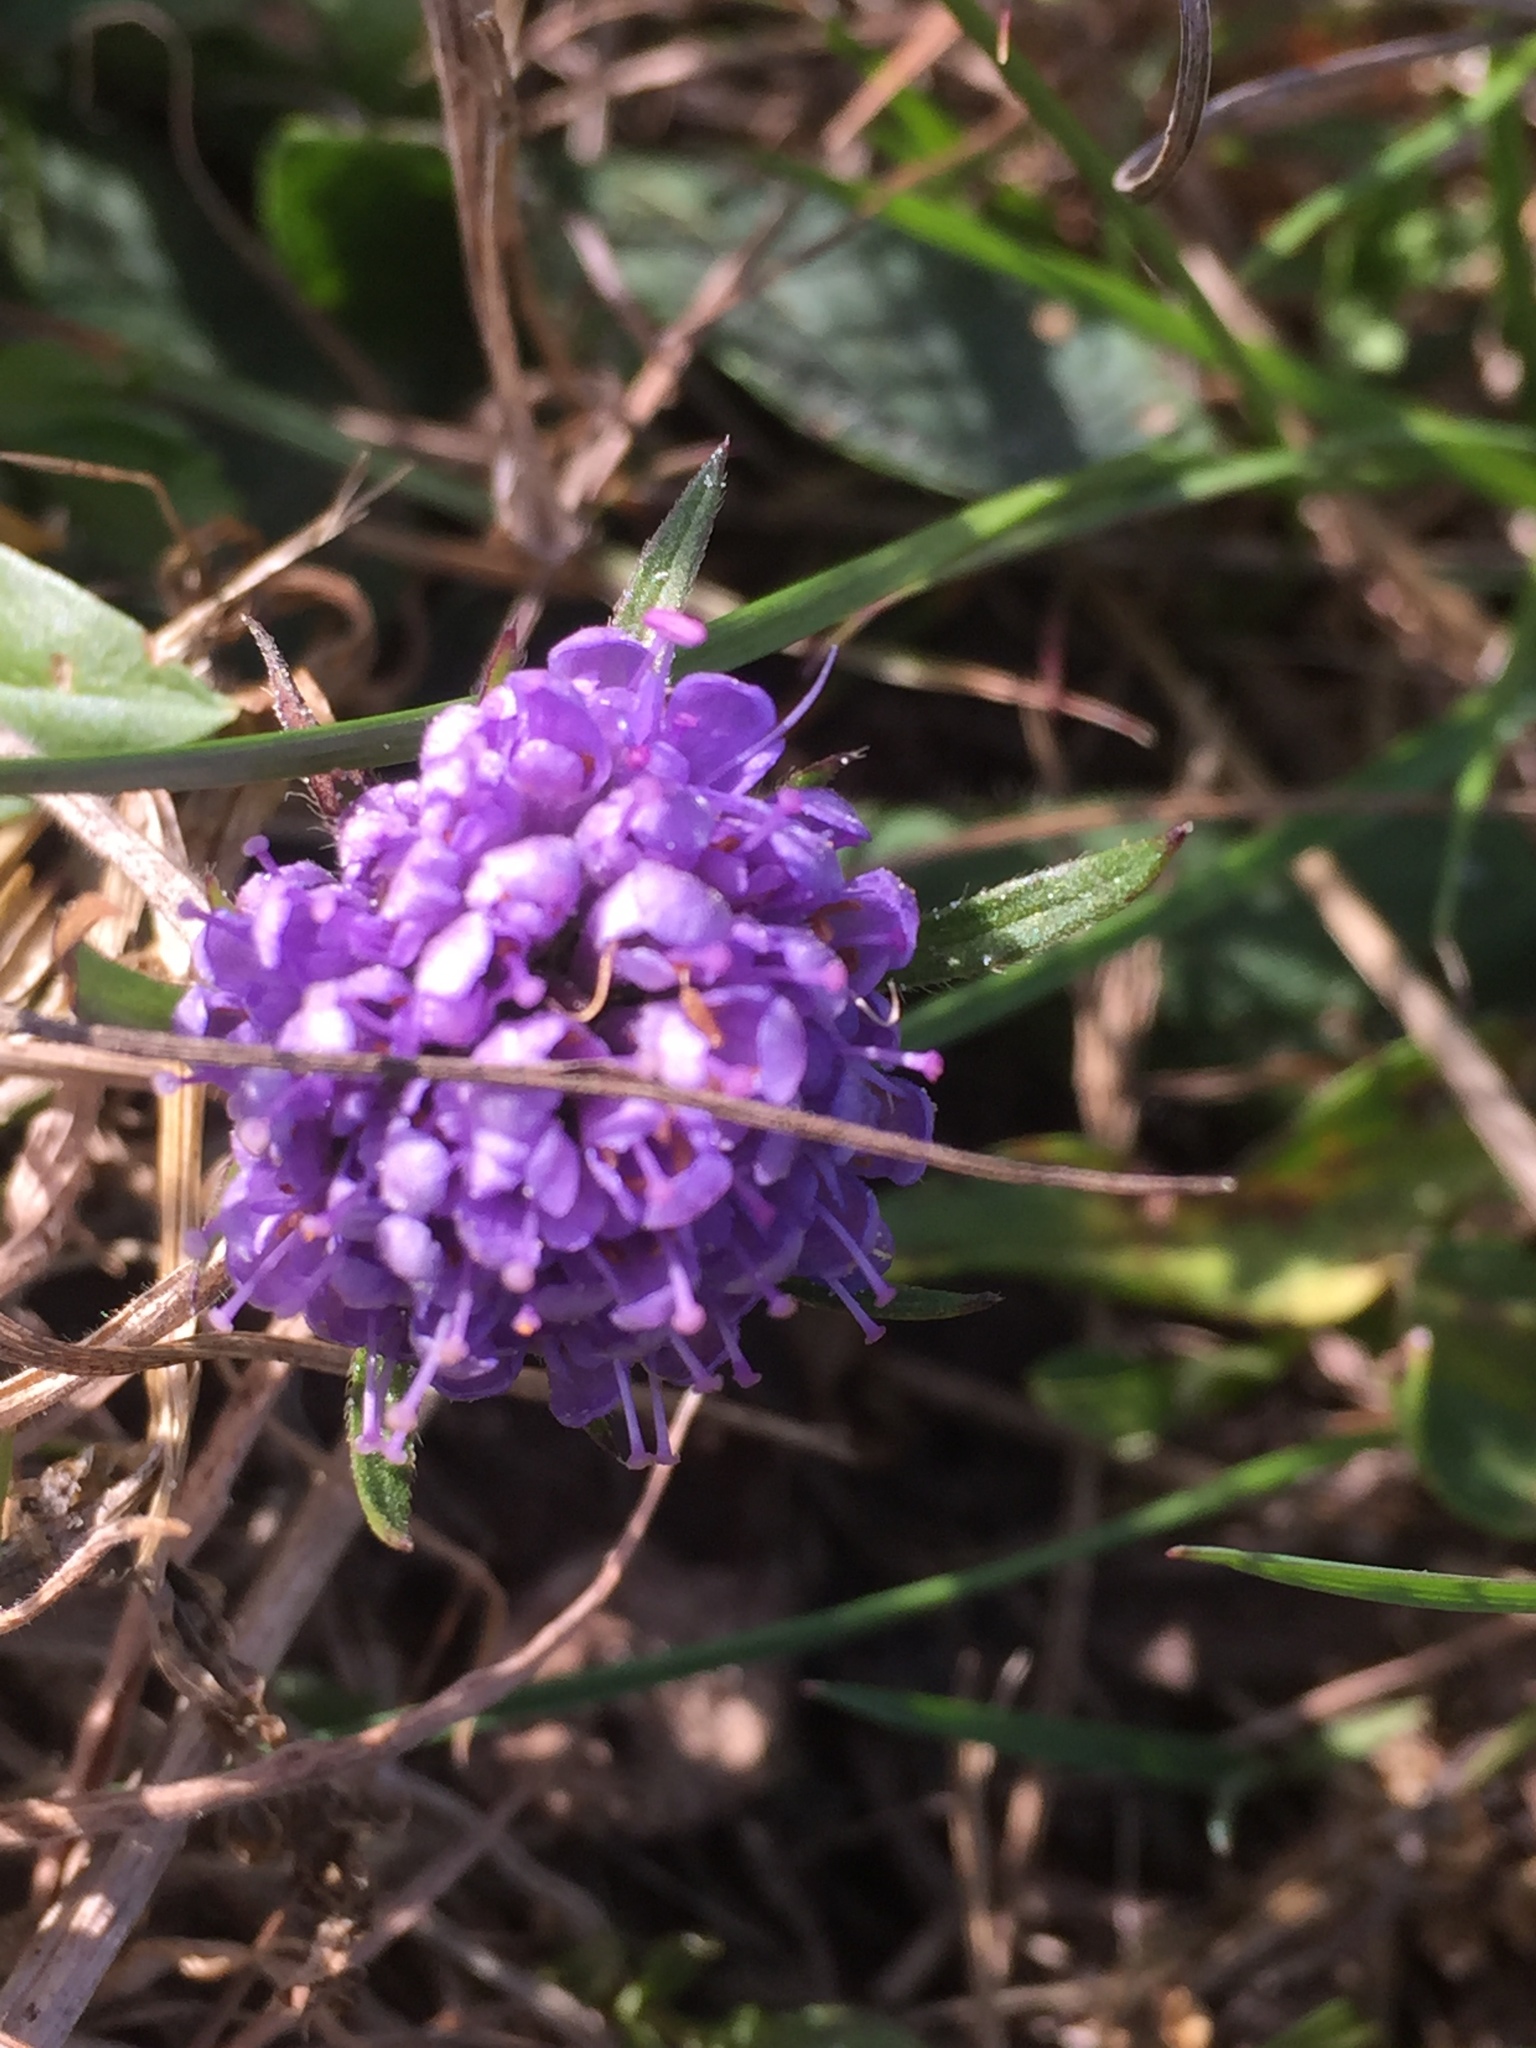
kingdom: Plantae
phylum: Tracheophyta
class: Magnoliopsida
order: Dipsacales
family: Caprifoliaceae
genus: Succisa
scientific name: Succisa pratensis
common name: Devil's-bit
